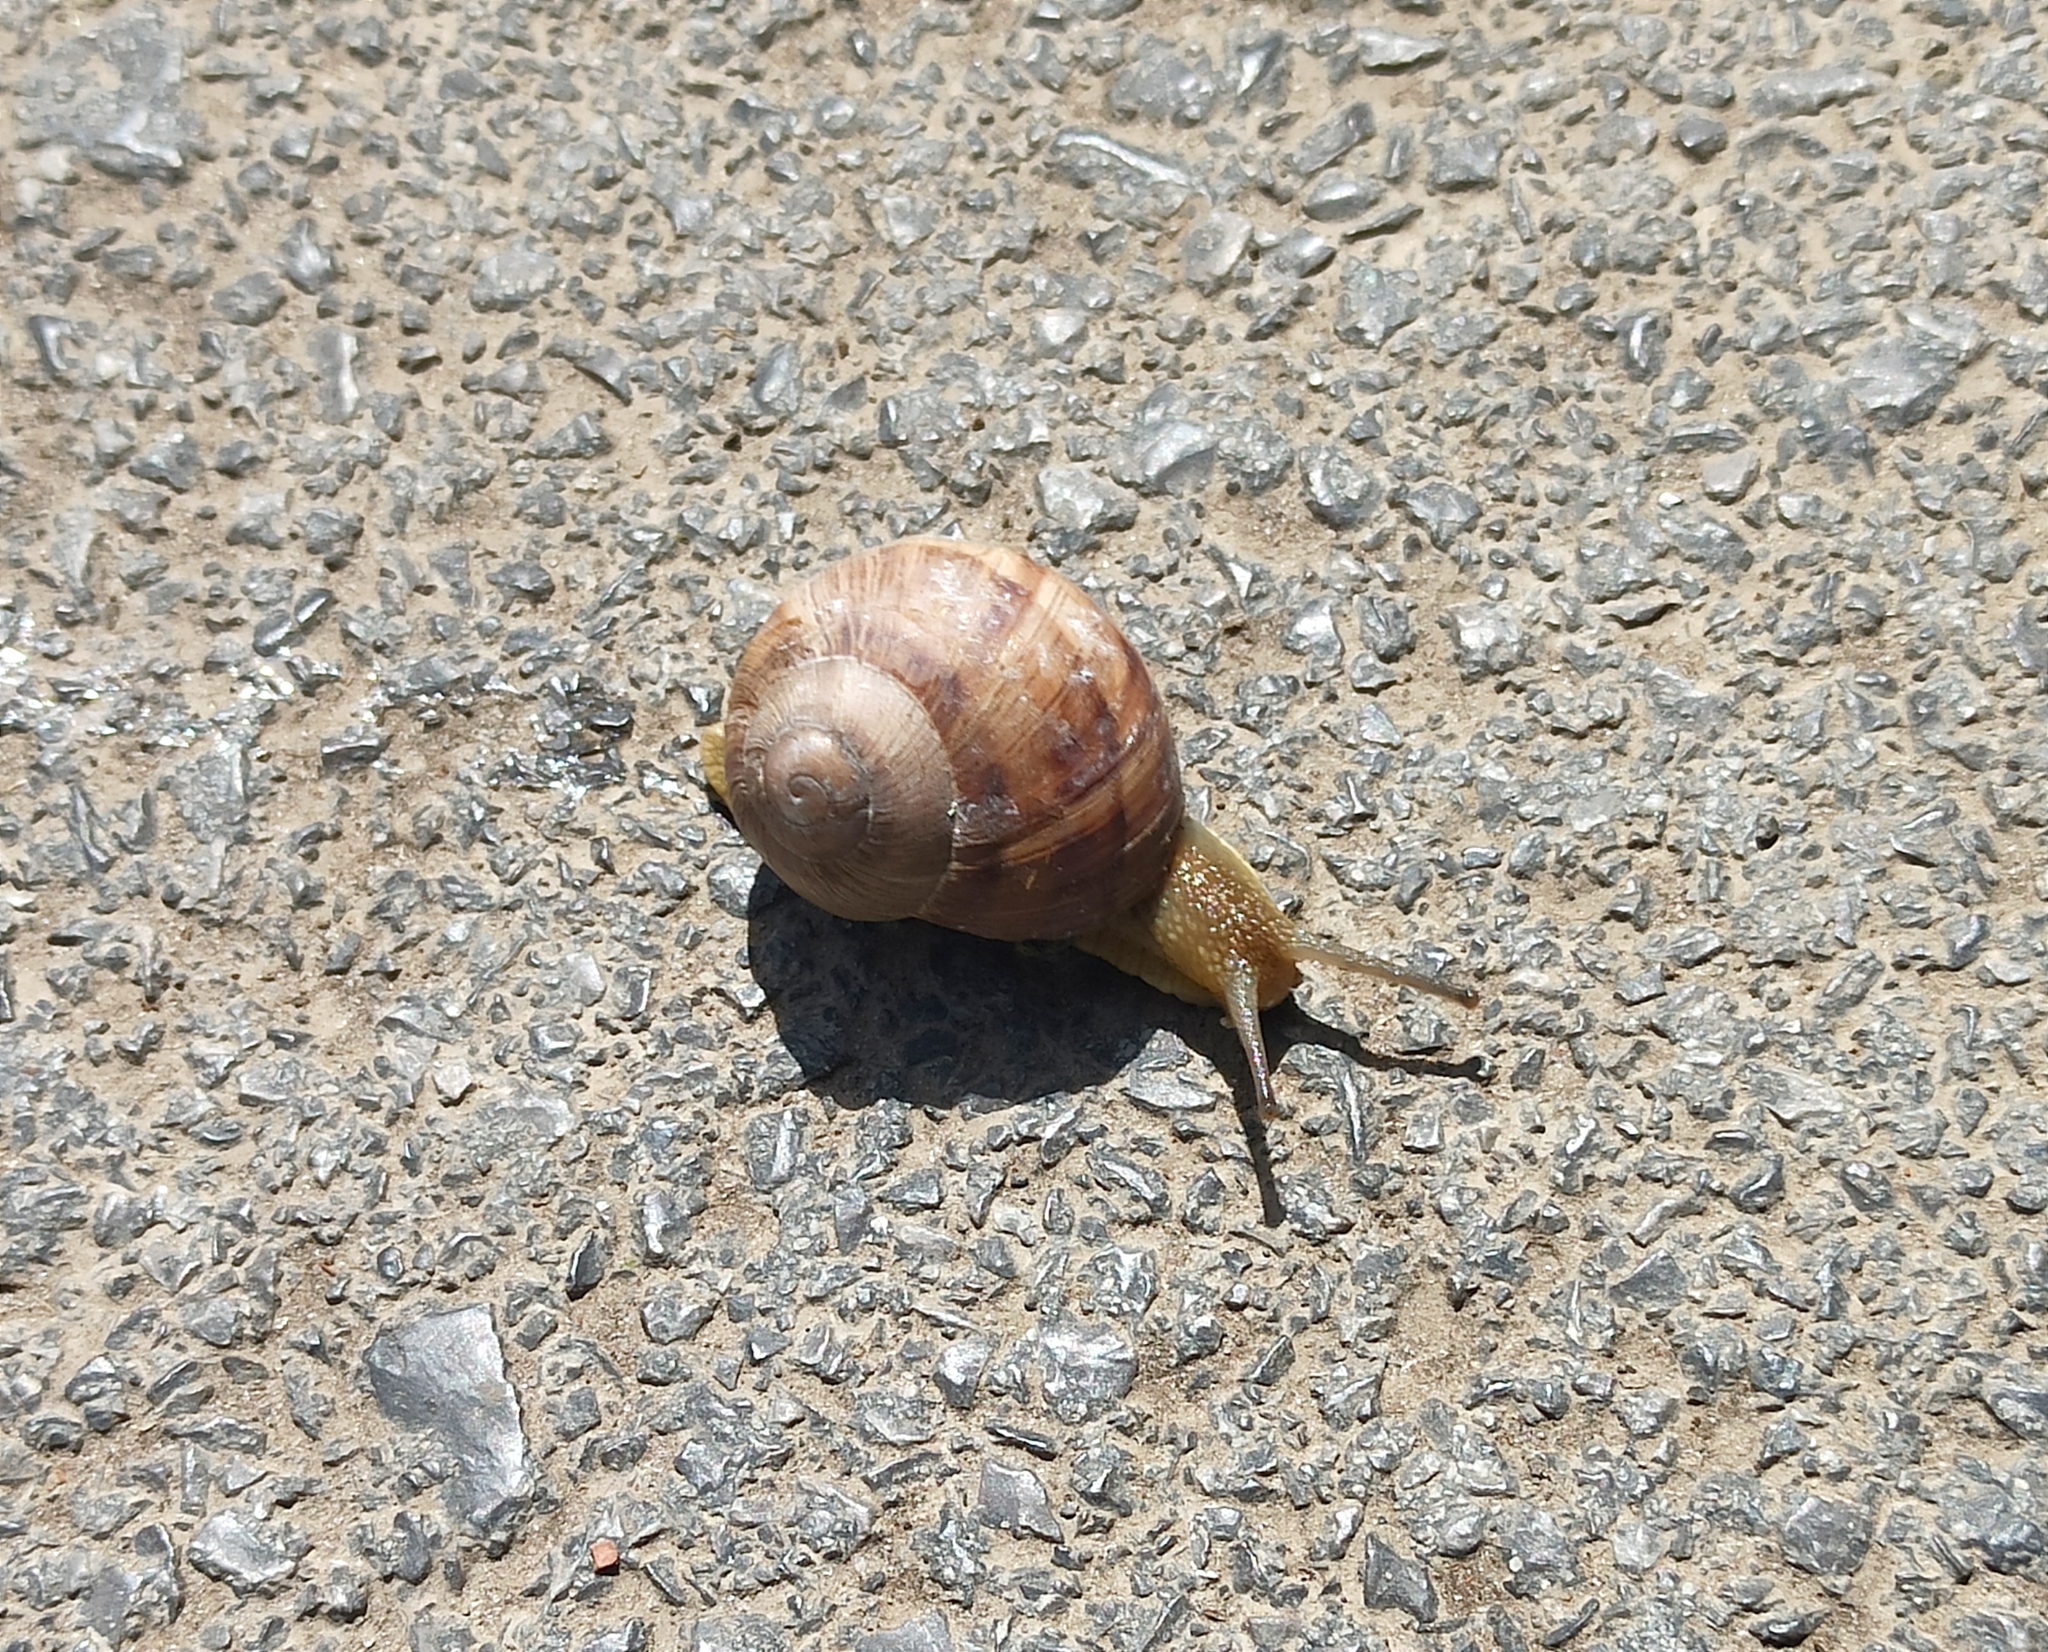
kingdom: Animalia
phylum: Mollusca
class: Gastropoda
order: Stylommatophora
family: Helicidae
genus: Helix
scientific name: Helix albescens
